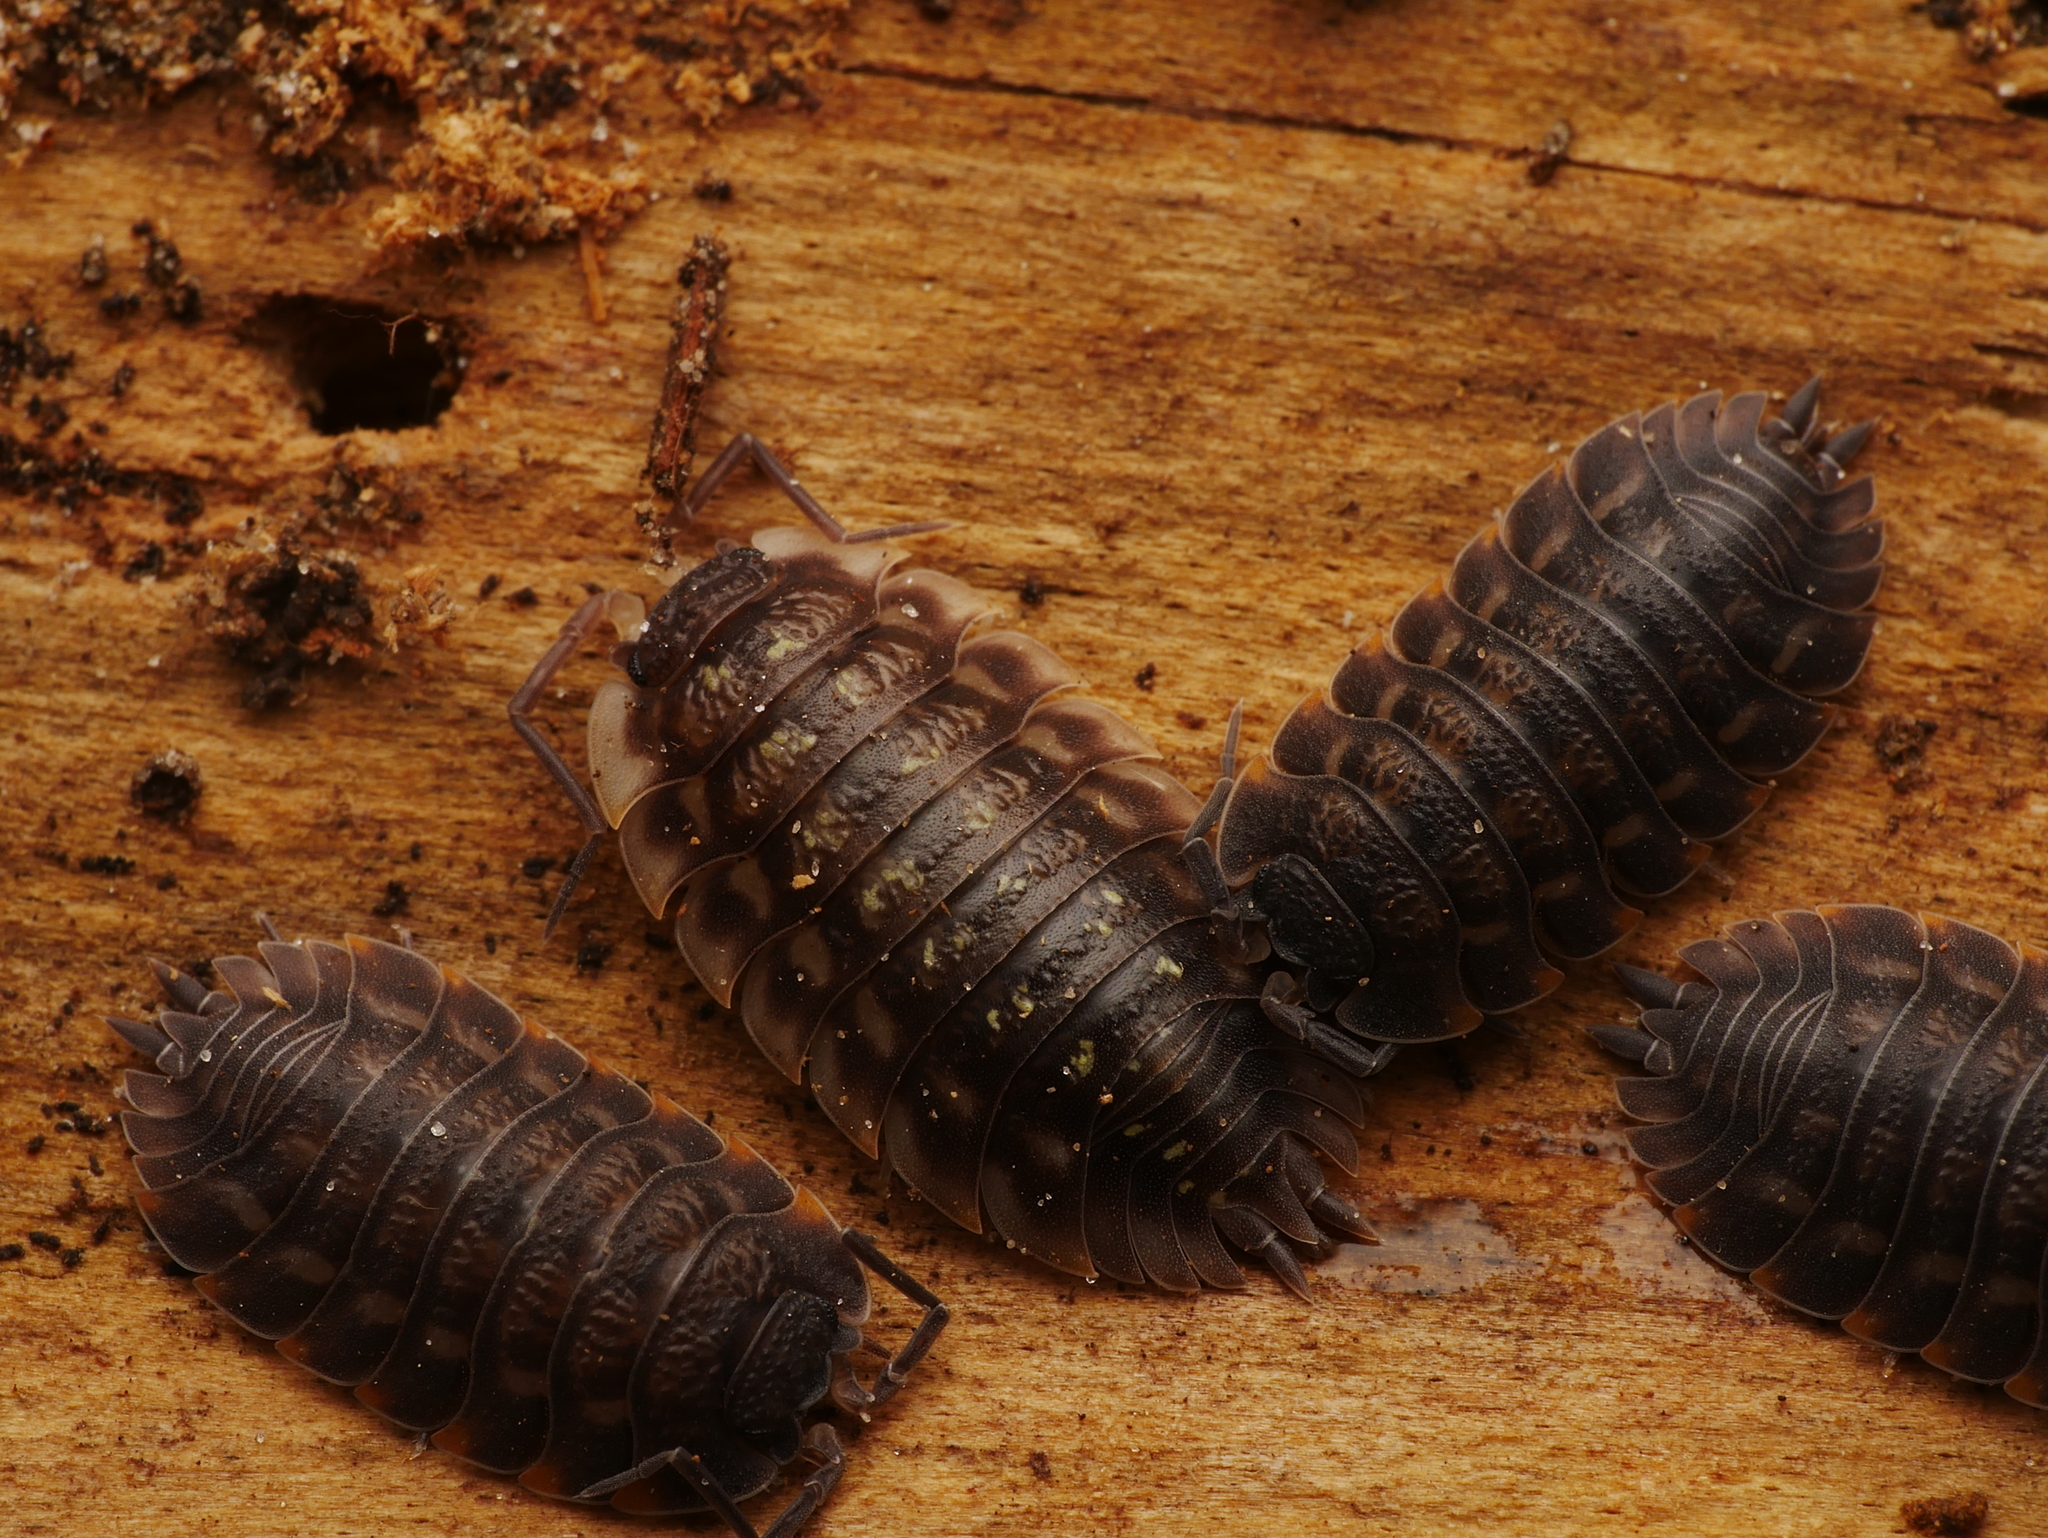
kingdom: Animalia
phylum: Arthropoda
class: Malacostraca
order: Isopoda
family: Trachelipodidae
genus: Trachelipus
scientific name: Trachelipus ratzeburgii
